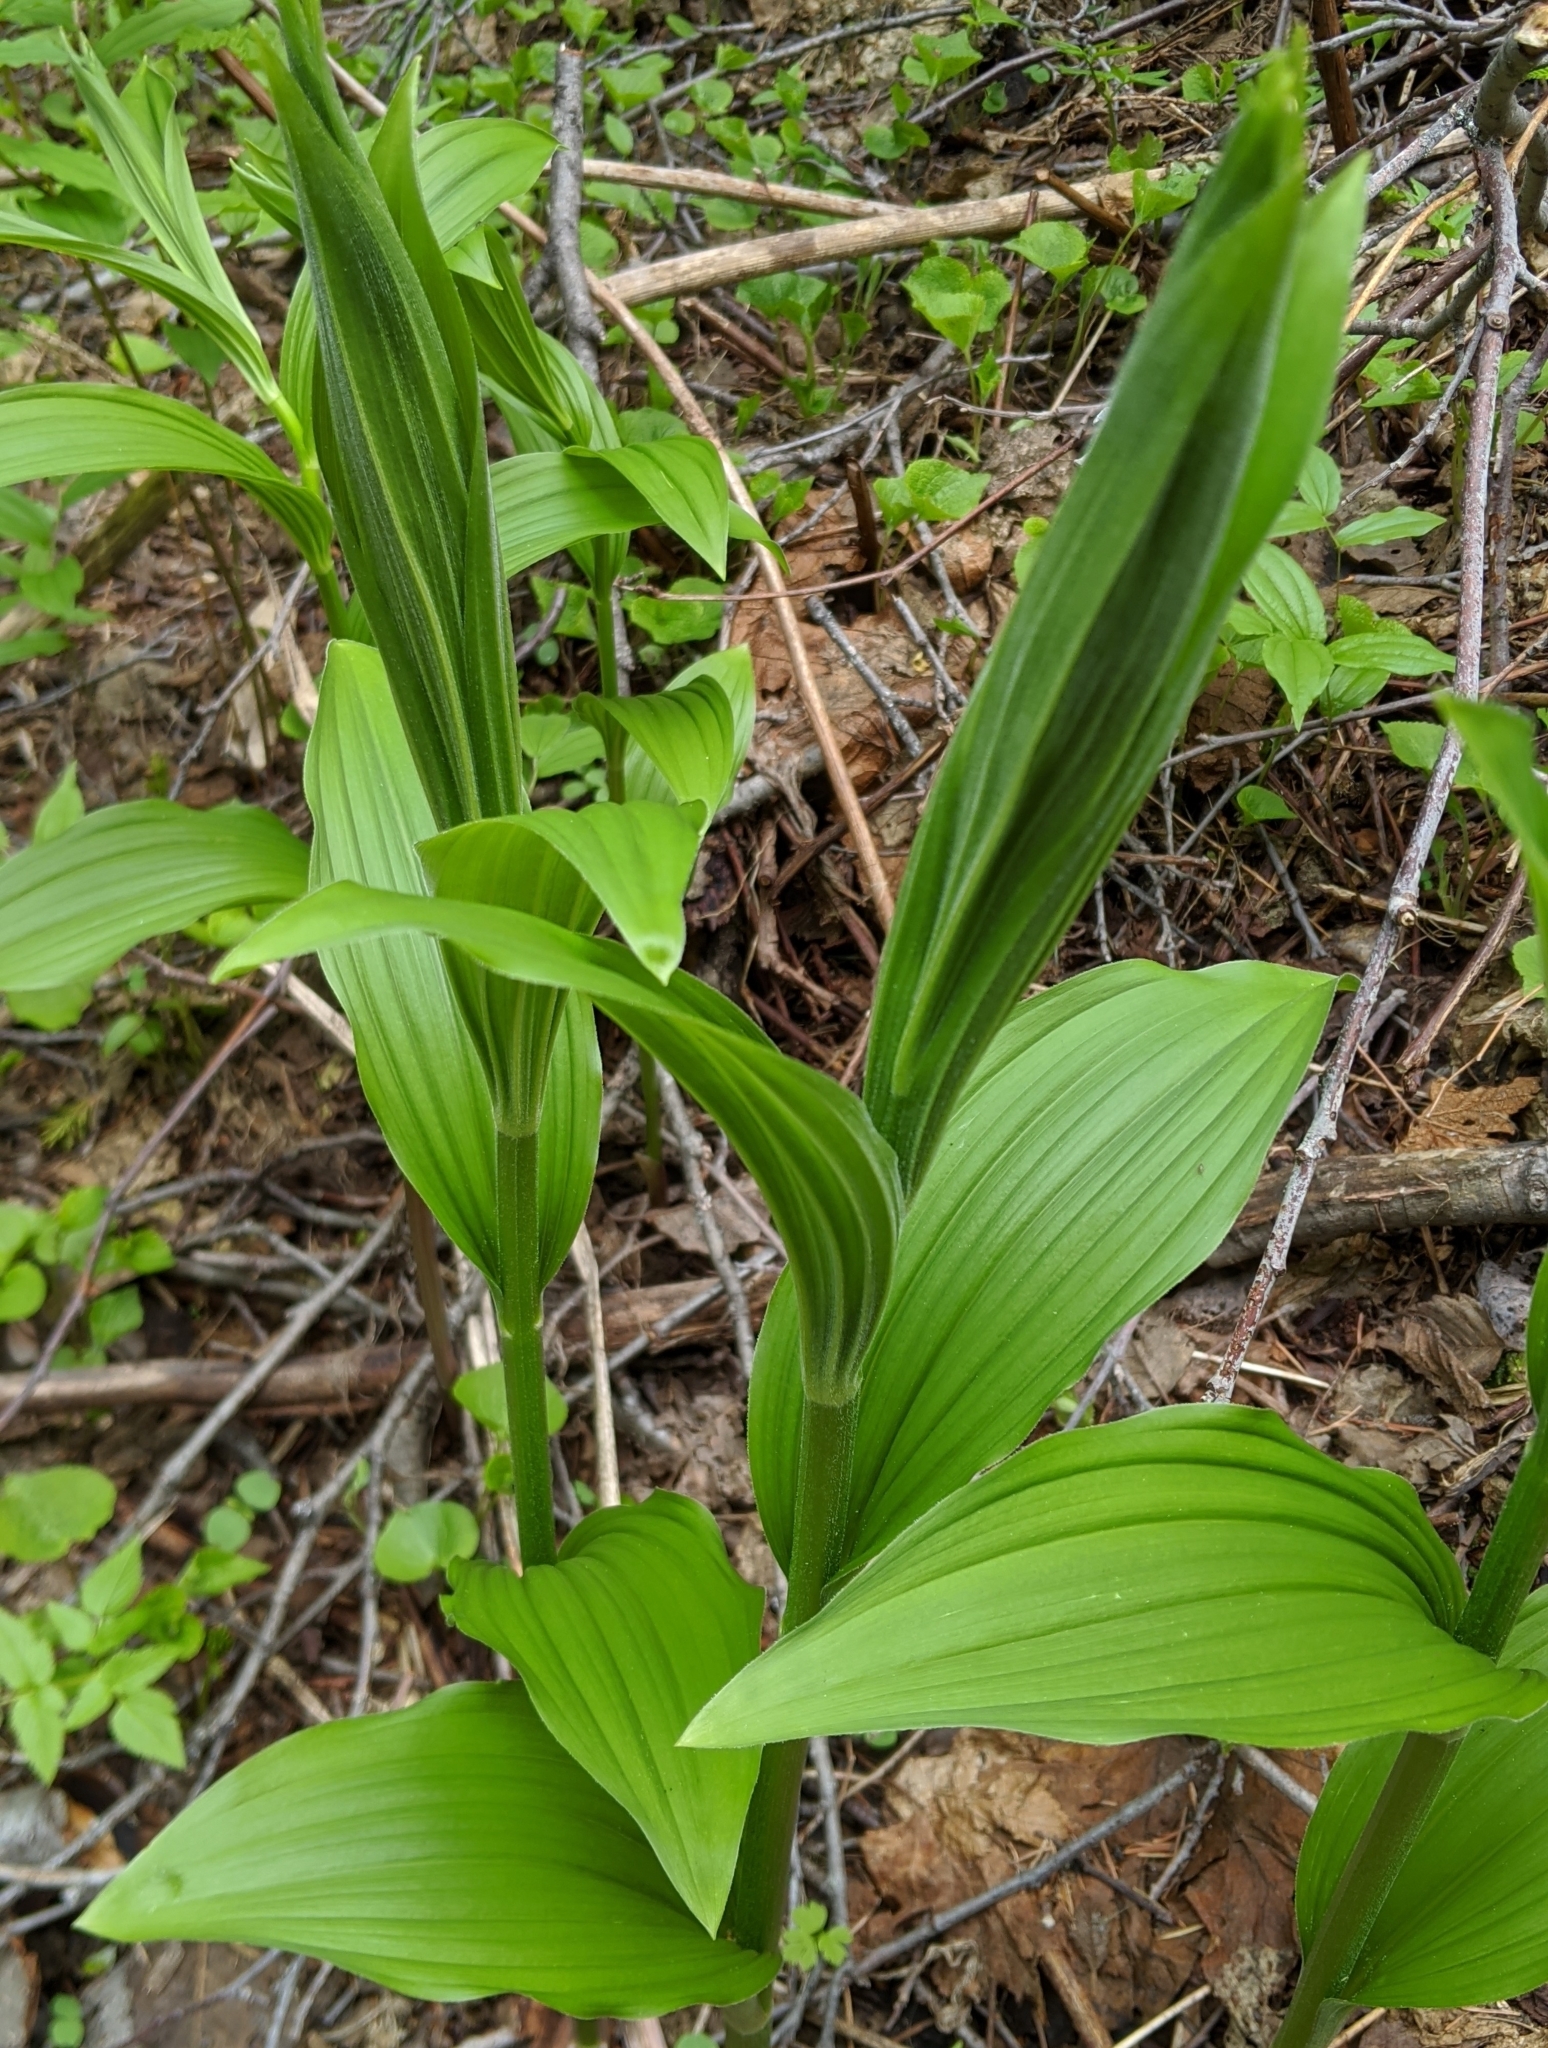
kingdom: Plantae
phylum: Tracheophyta
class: Liliopsida
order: Liliales
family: Melanthiaceae
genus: Veratrum
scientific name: Veratrum viride
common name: American false hellebore
